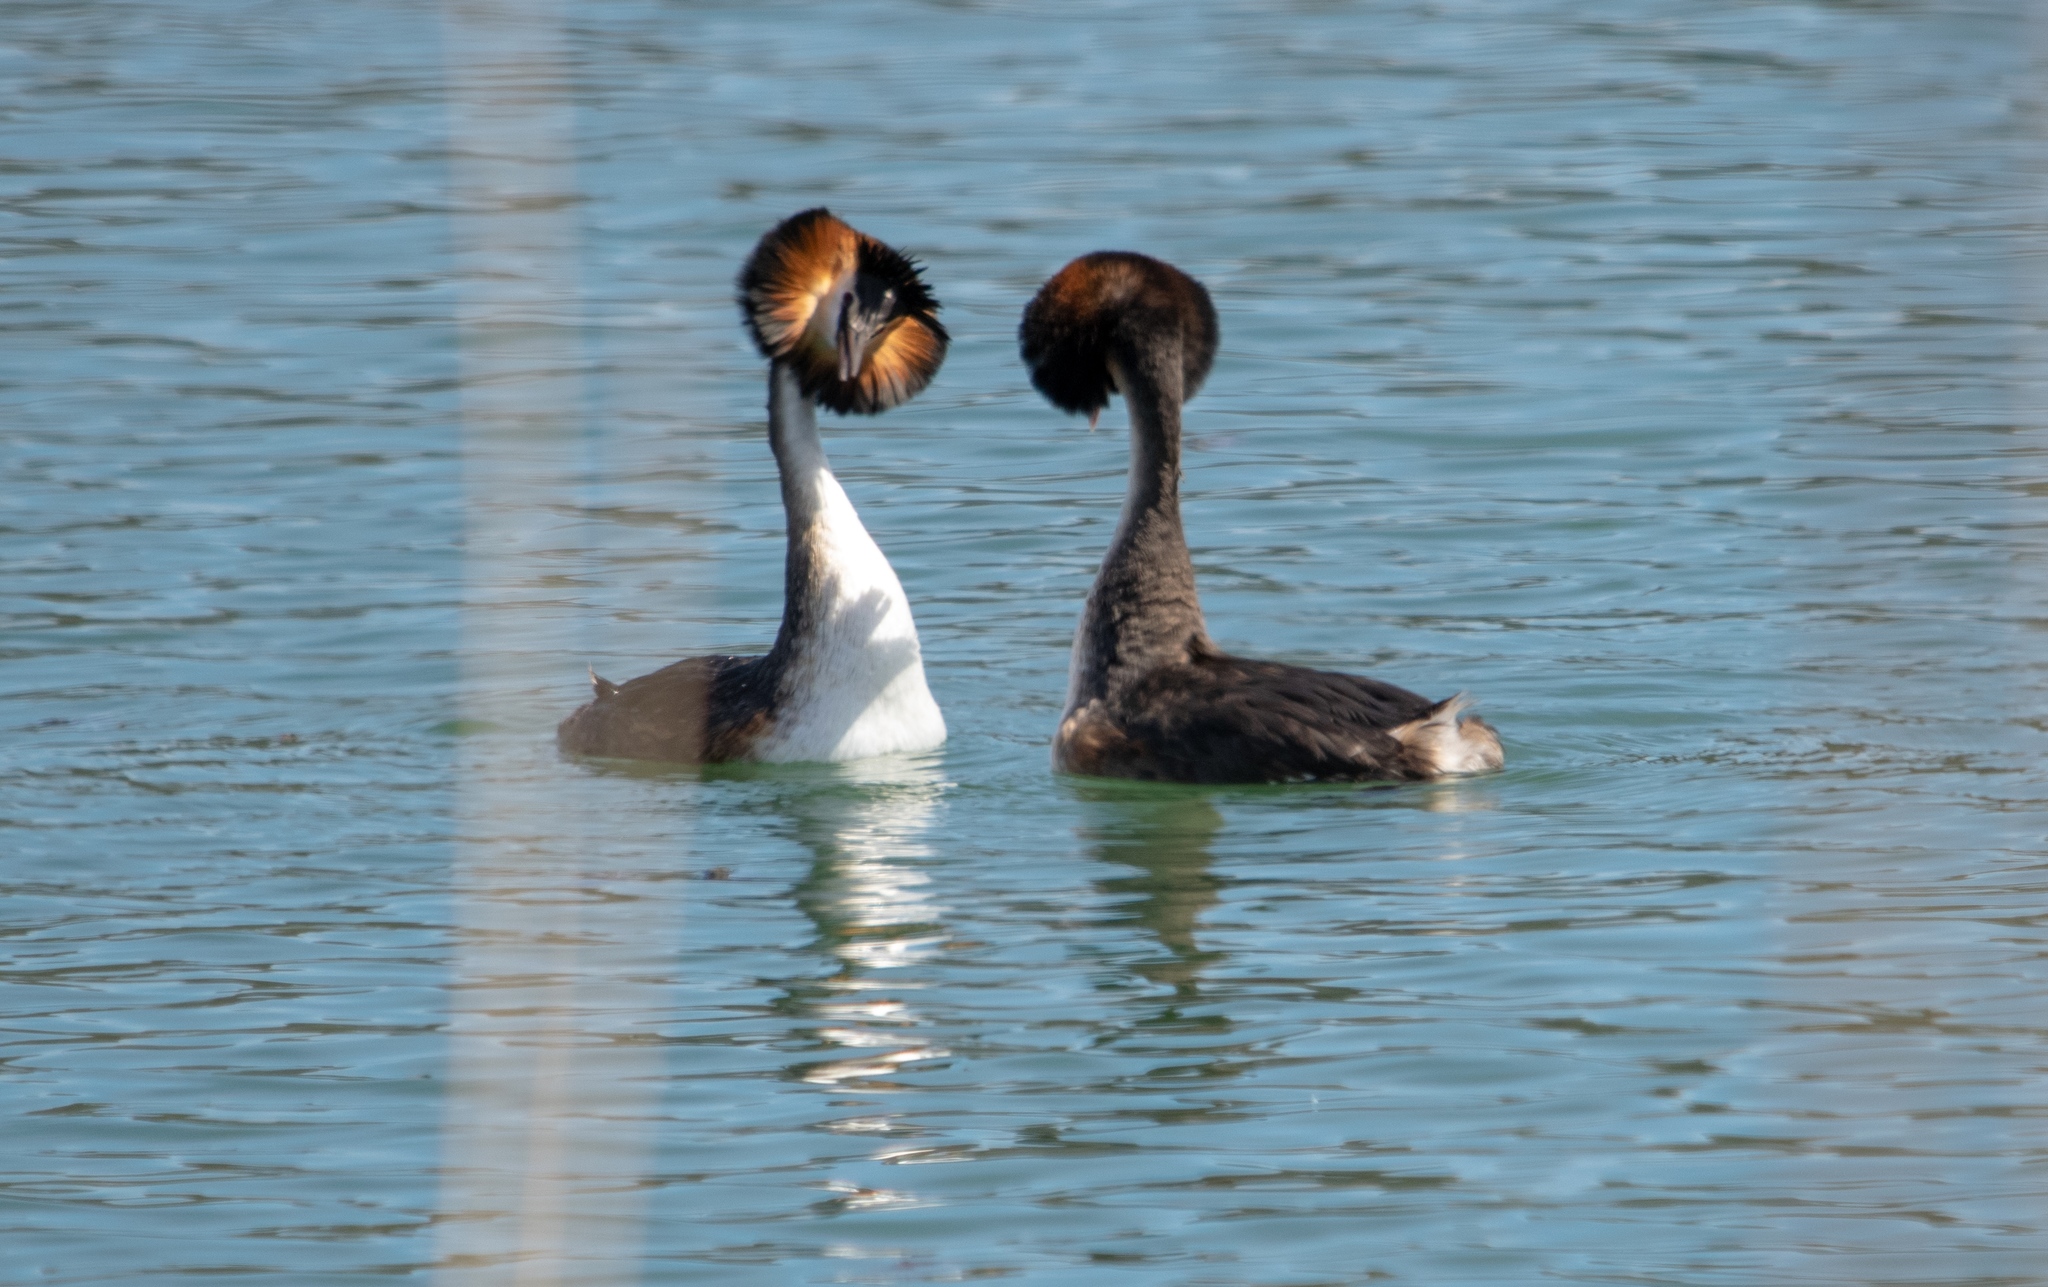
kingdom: Animalia
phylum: Chordata
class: Aves
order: Podicipediformes
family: Podicipedidae
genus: Podiceps
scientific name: Podiceps cristatus
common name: Great crested grebe
